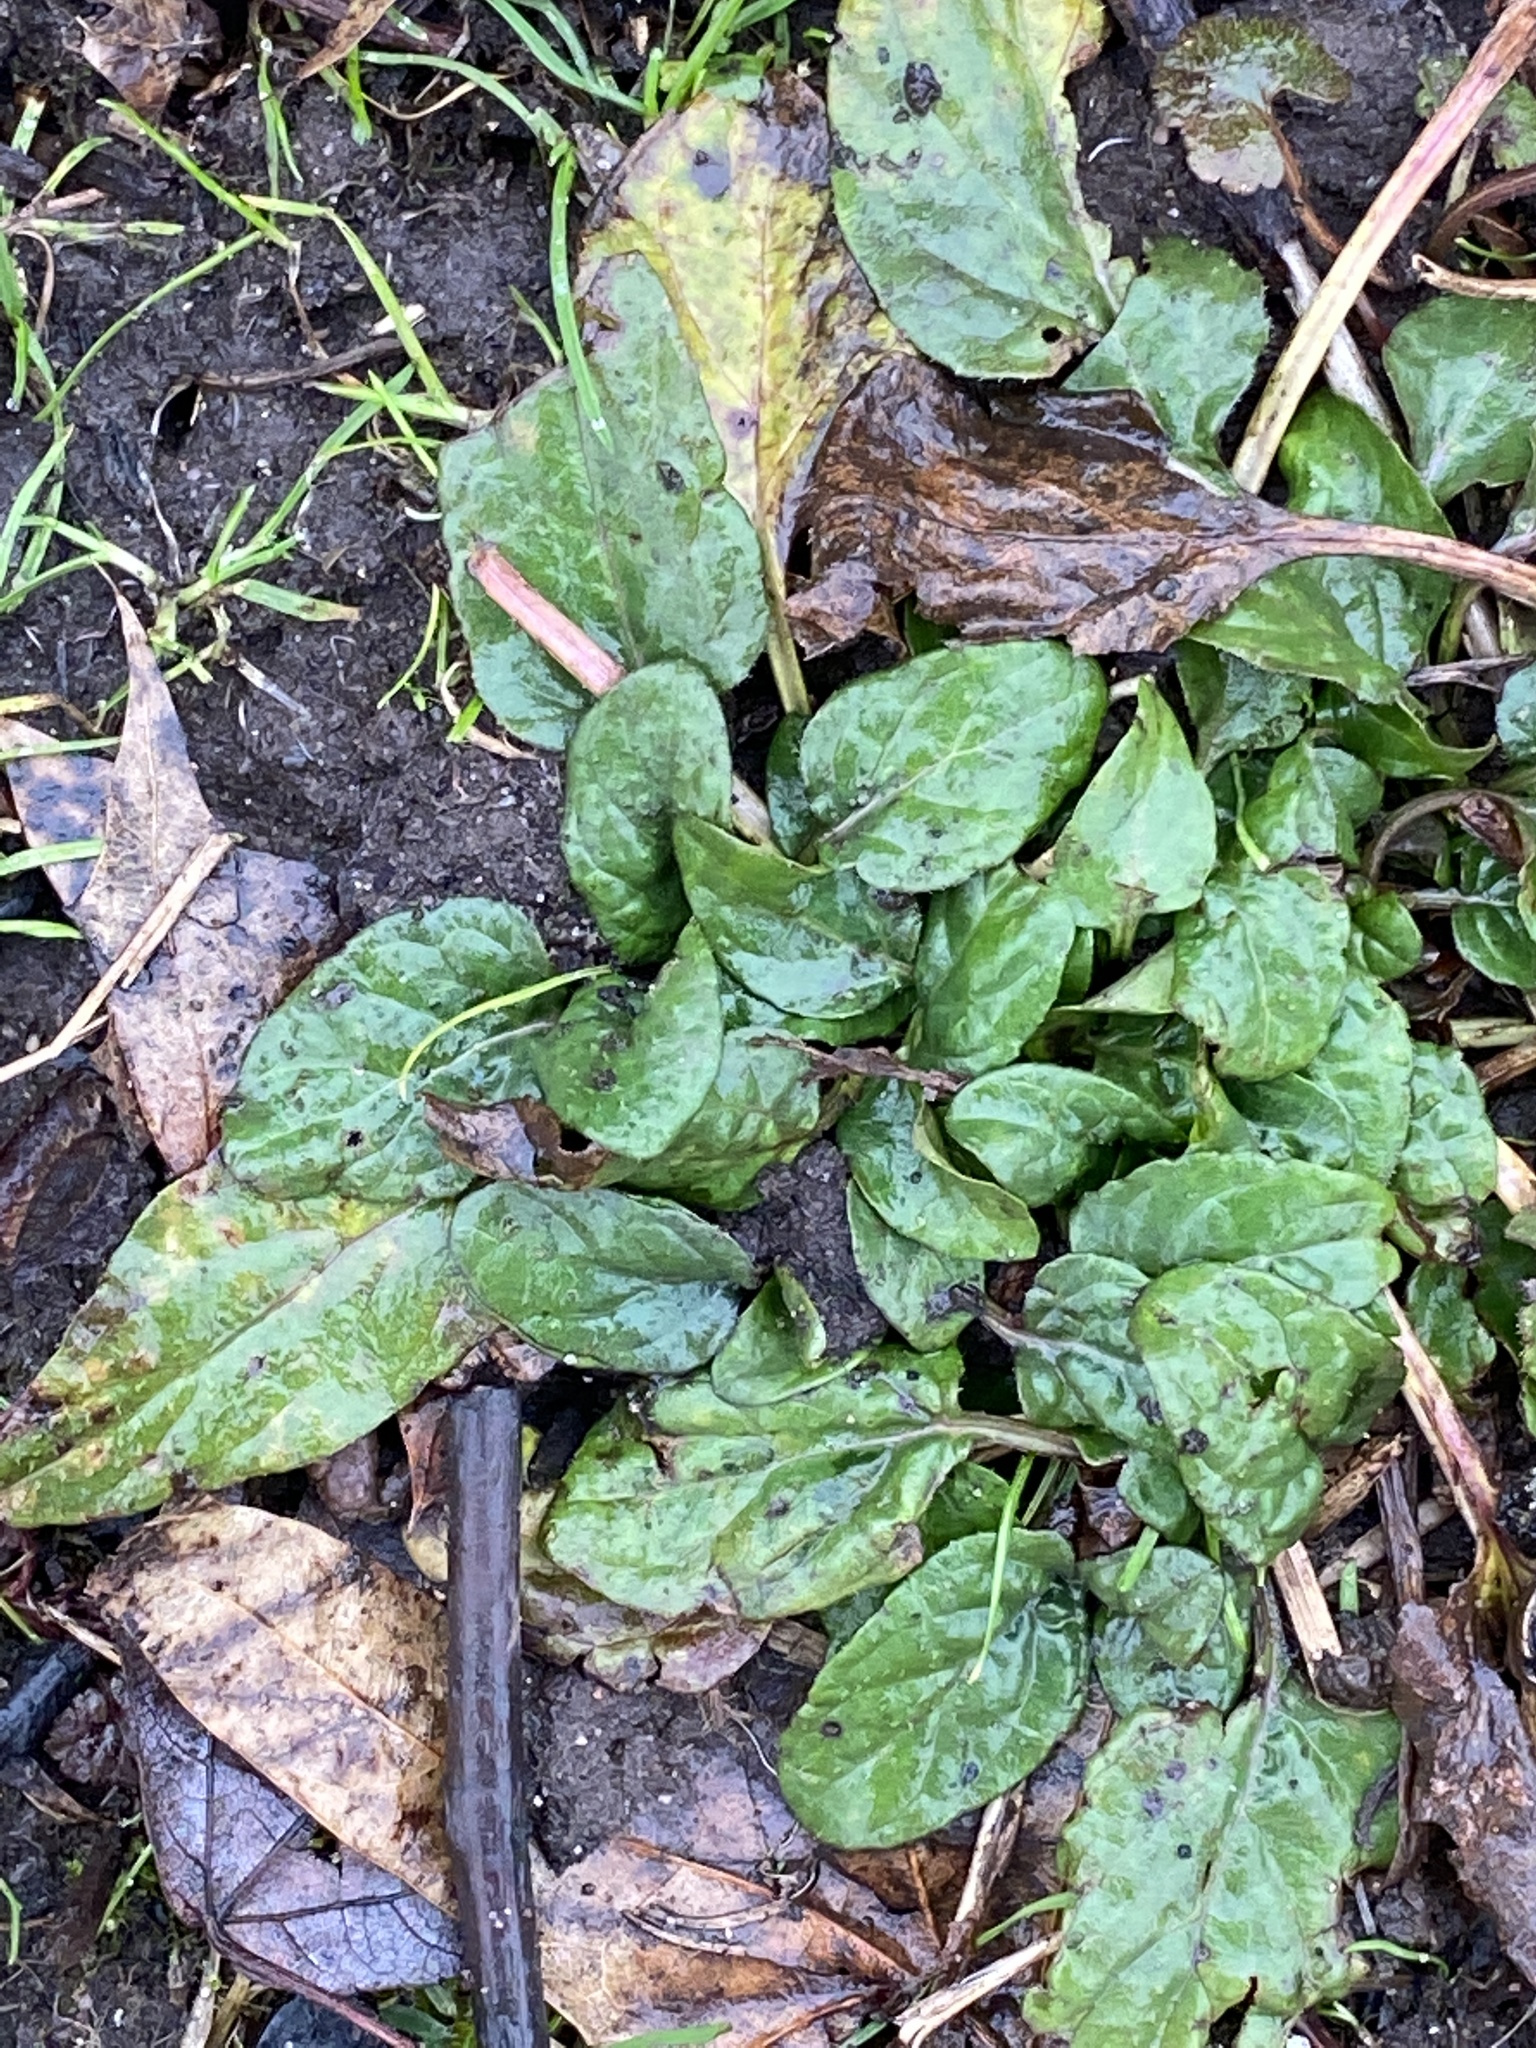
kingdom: Plantae
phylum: Tracheophyta
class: Magnoliopsida
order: Lamiales
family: Lamiaceae
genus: Prunella
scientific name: Prunella vulgaris
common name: Heal-all
